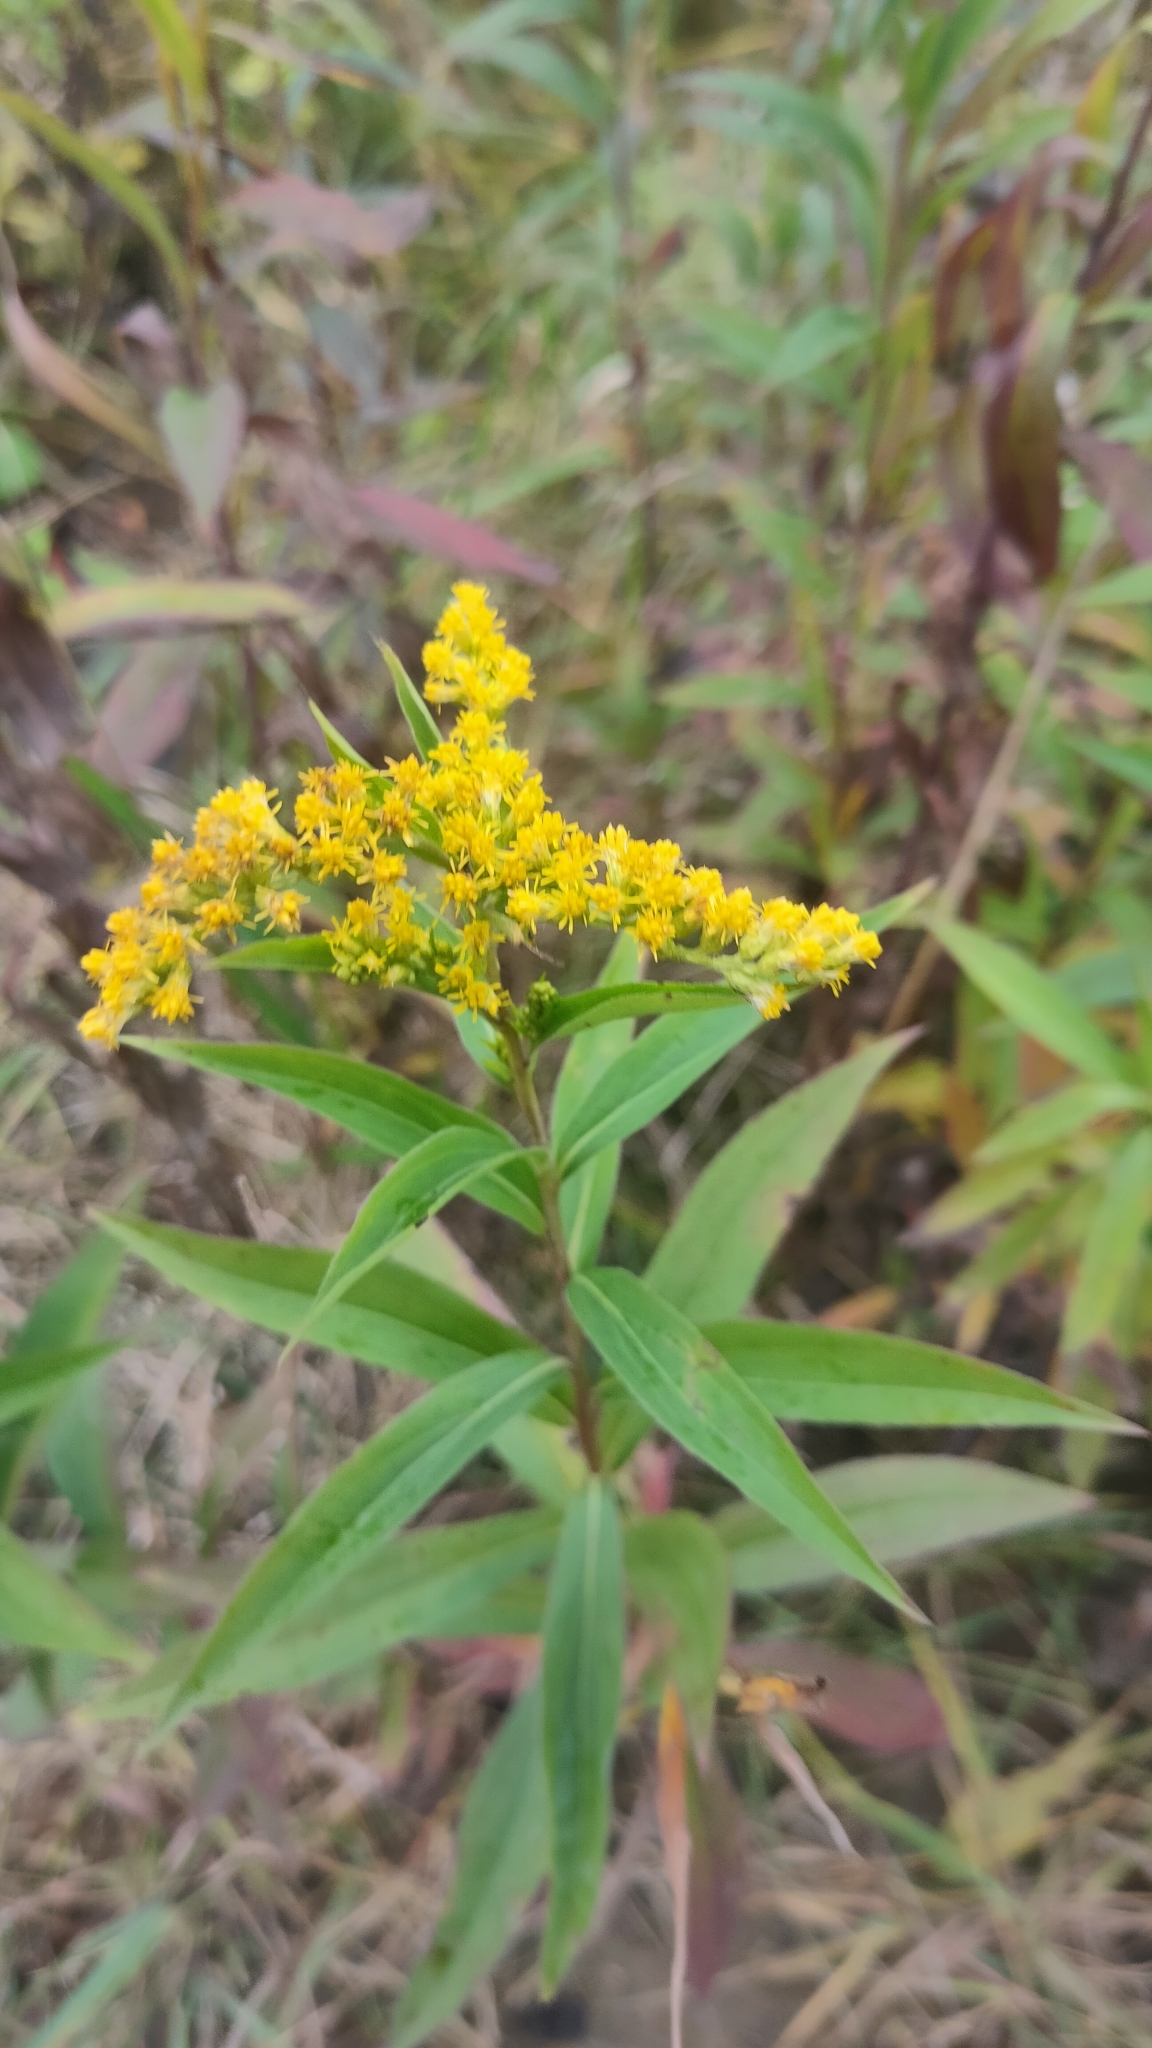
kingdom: Plantae
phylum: Tracheophyta
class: Magnoliopsida
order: Asterales
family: Asteraceae
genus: Solidago
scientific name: Solidago gigantea
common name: Giant goldenrod
